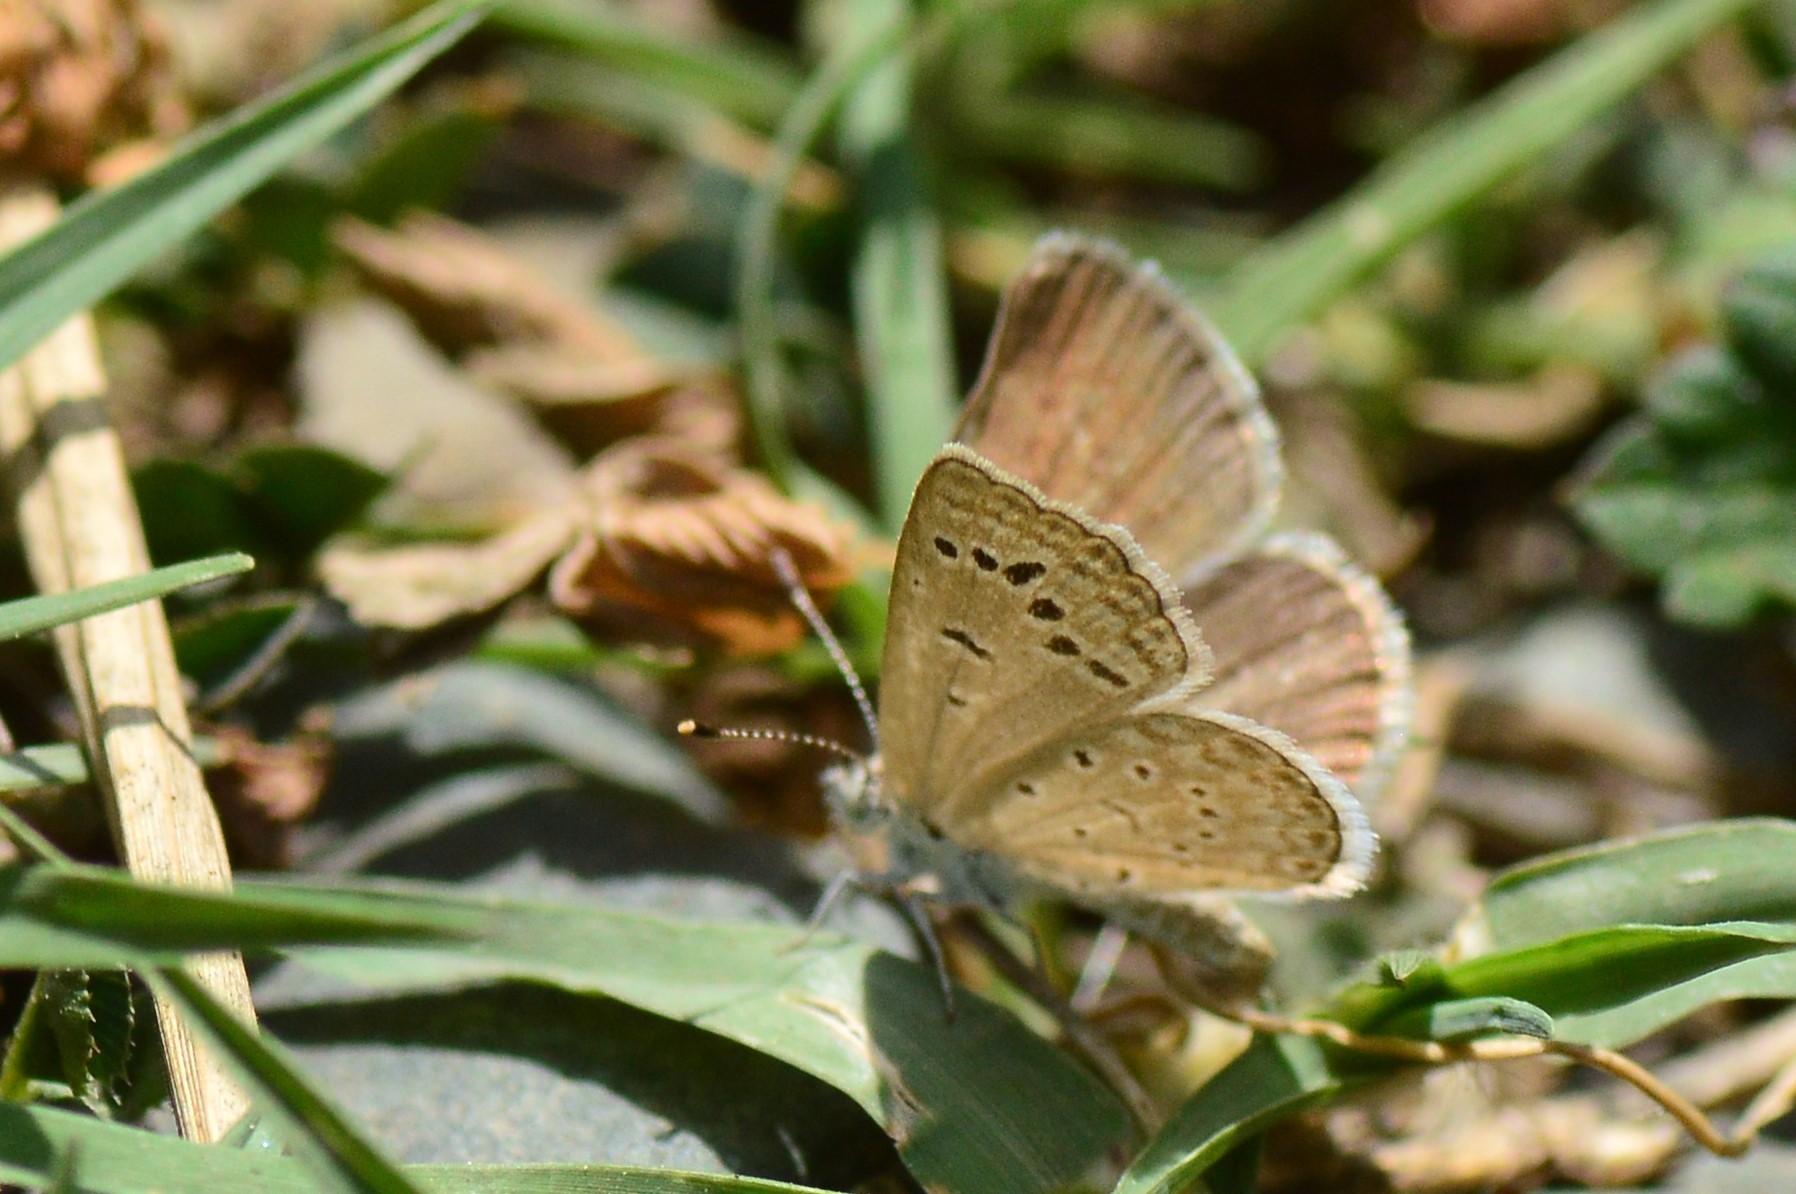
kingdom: Animalia
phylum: Arthropoda
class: Insecta
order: Lepidoptera
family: Lycaenidae
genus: Zizeeria
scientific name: Zizeeria karsandra
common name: Dark grass blue
